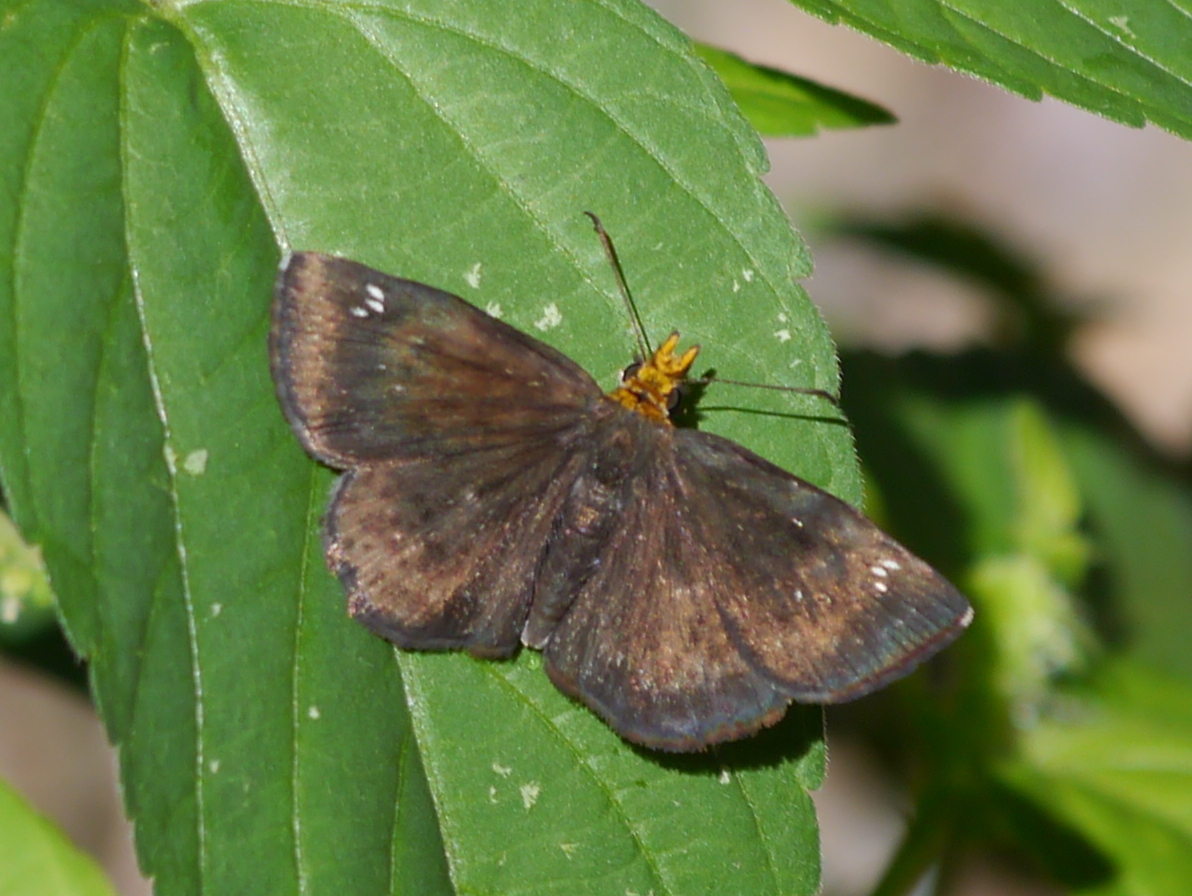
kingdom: Animalia
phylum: Arthropoda
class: Insecta
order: Lepidoptera
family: Hesperiidae
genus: Staphylus
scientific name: Staphylus ceos
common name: Golden-headed scallopwing
